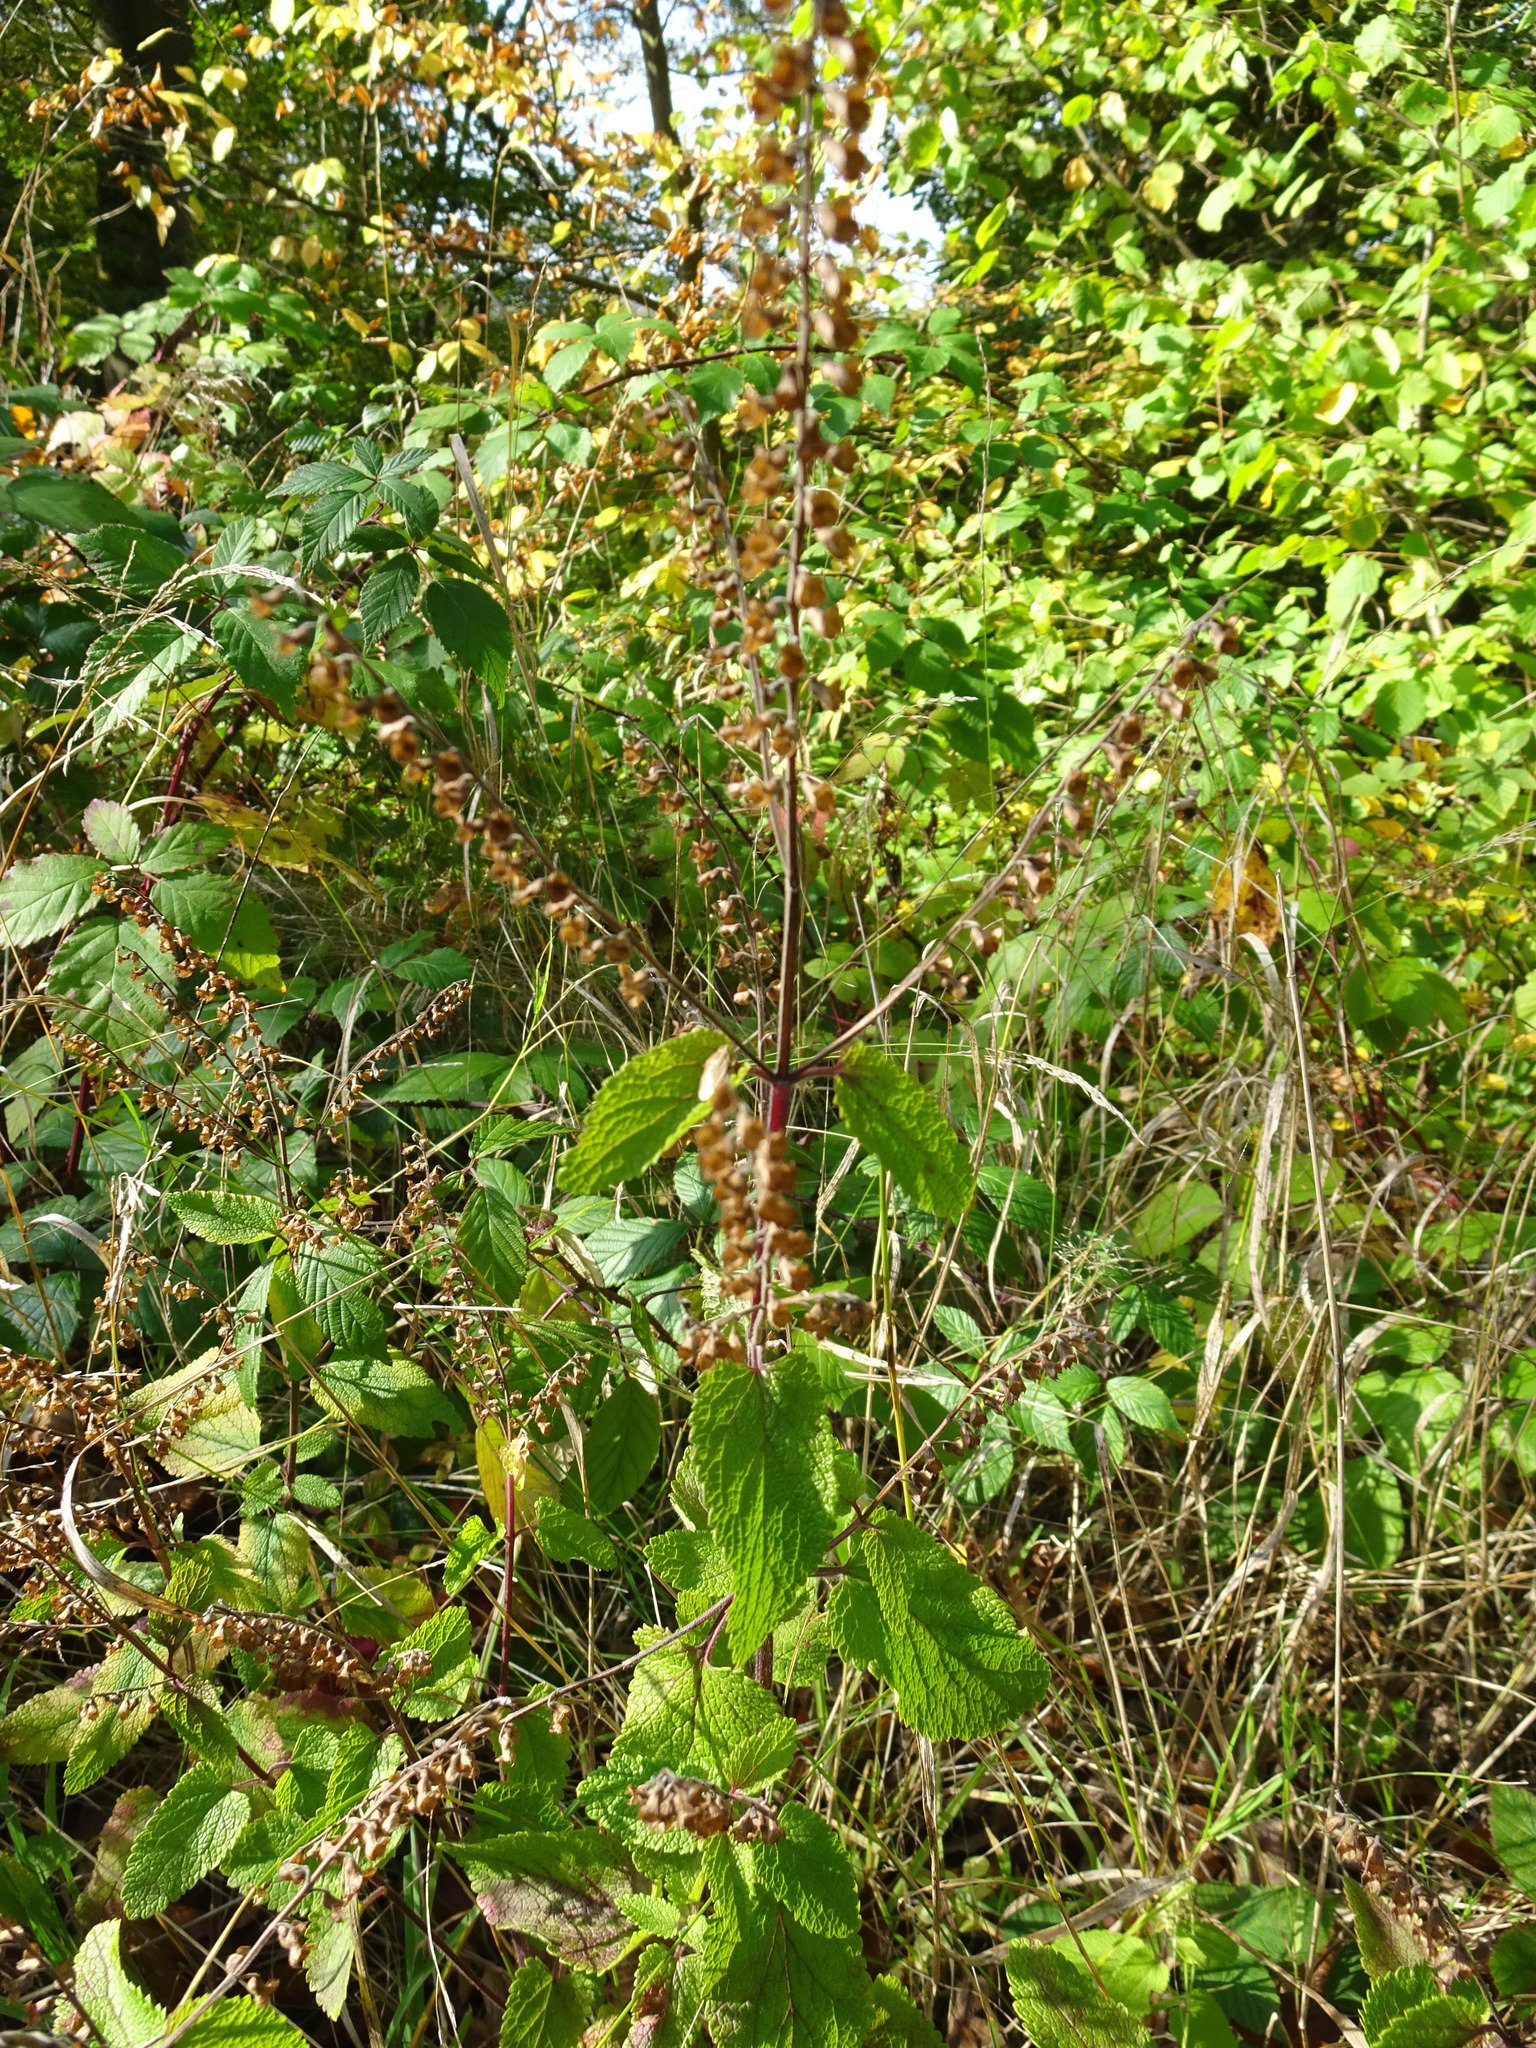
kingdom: Plantae
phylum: Tracheophyta
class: Magnoliopsida
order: Lamiales
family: Lamiaceae
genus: Teucrium
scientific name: Teucrium scorodonia
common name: Woodland germander
